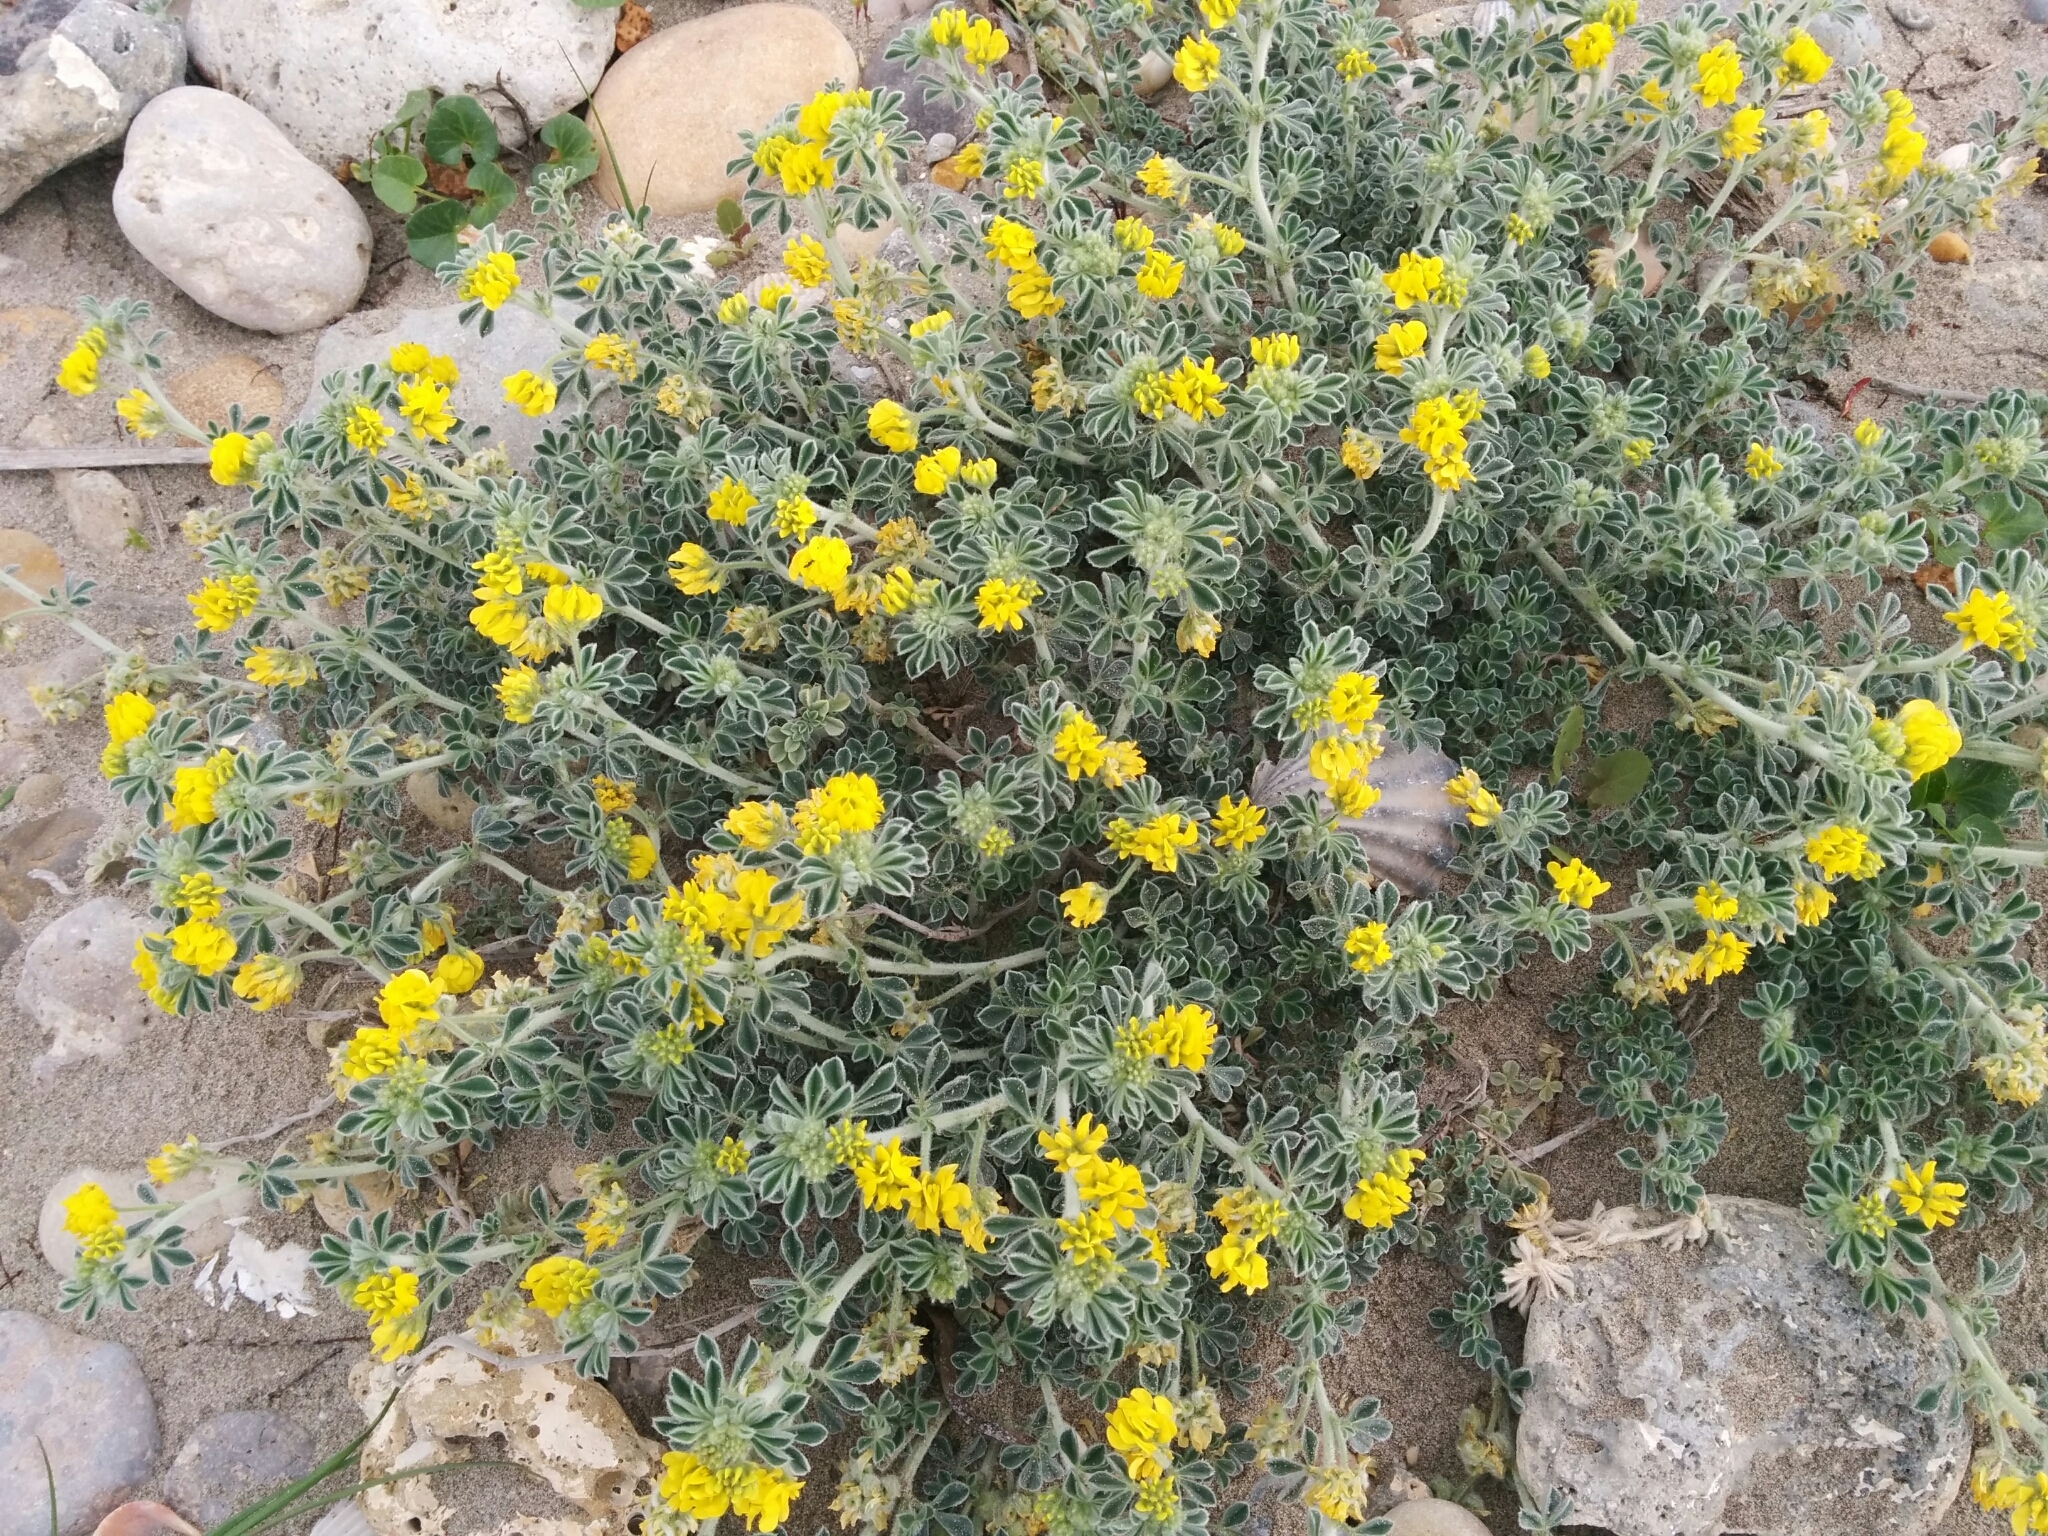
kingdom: Plantae
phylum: Tracheophyta
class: Magnoliopsida
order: Fabales
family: Fabaceae
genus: Medicago
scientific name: Medicago marina
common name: Sea medick
